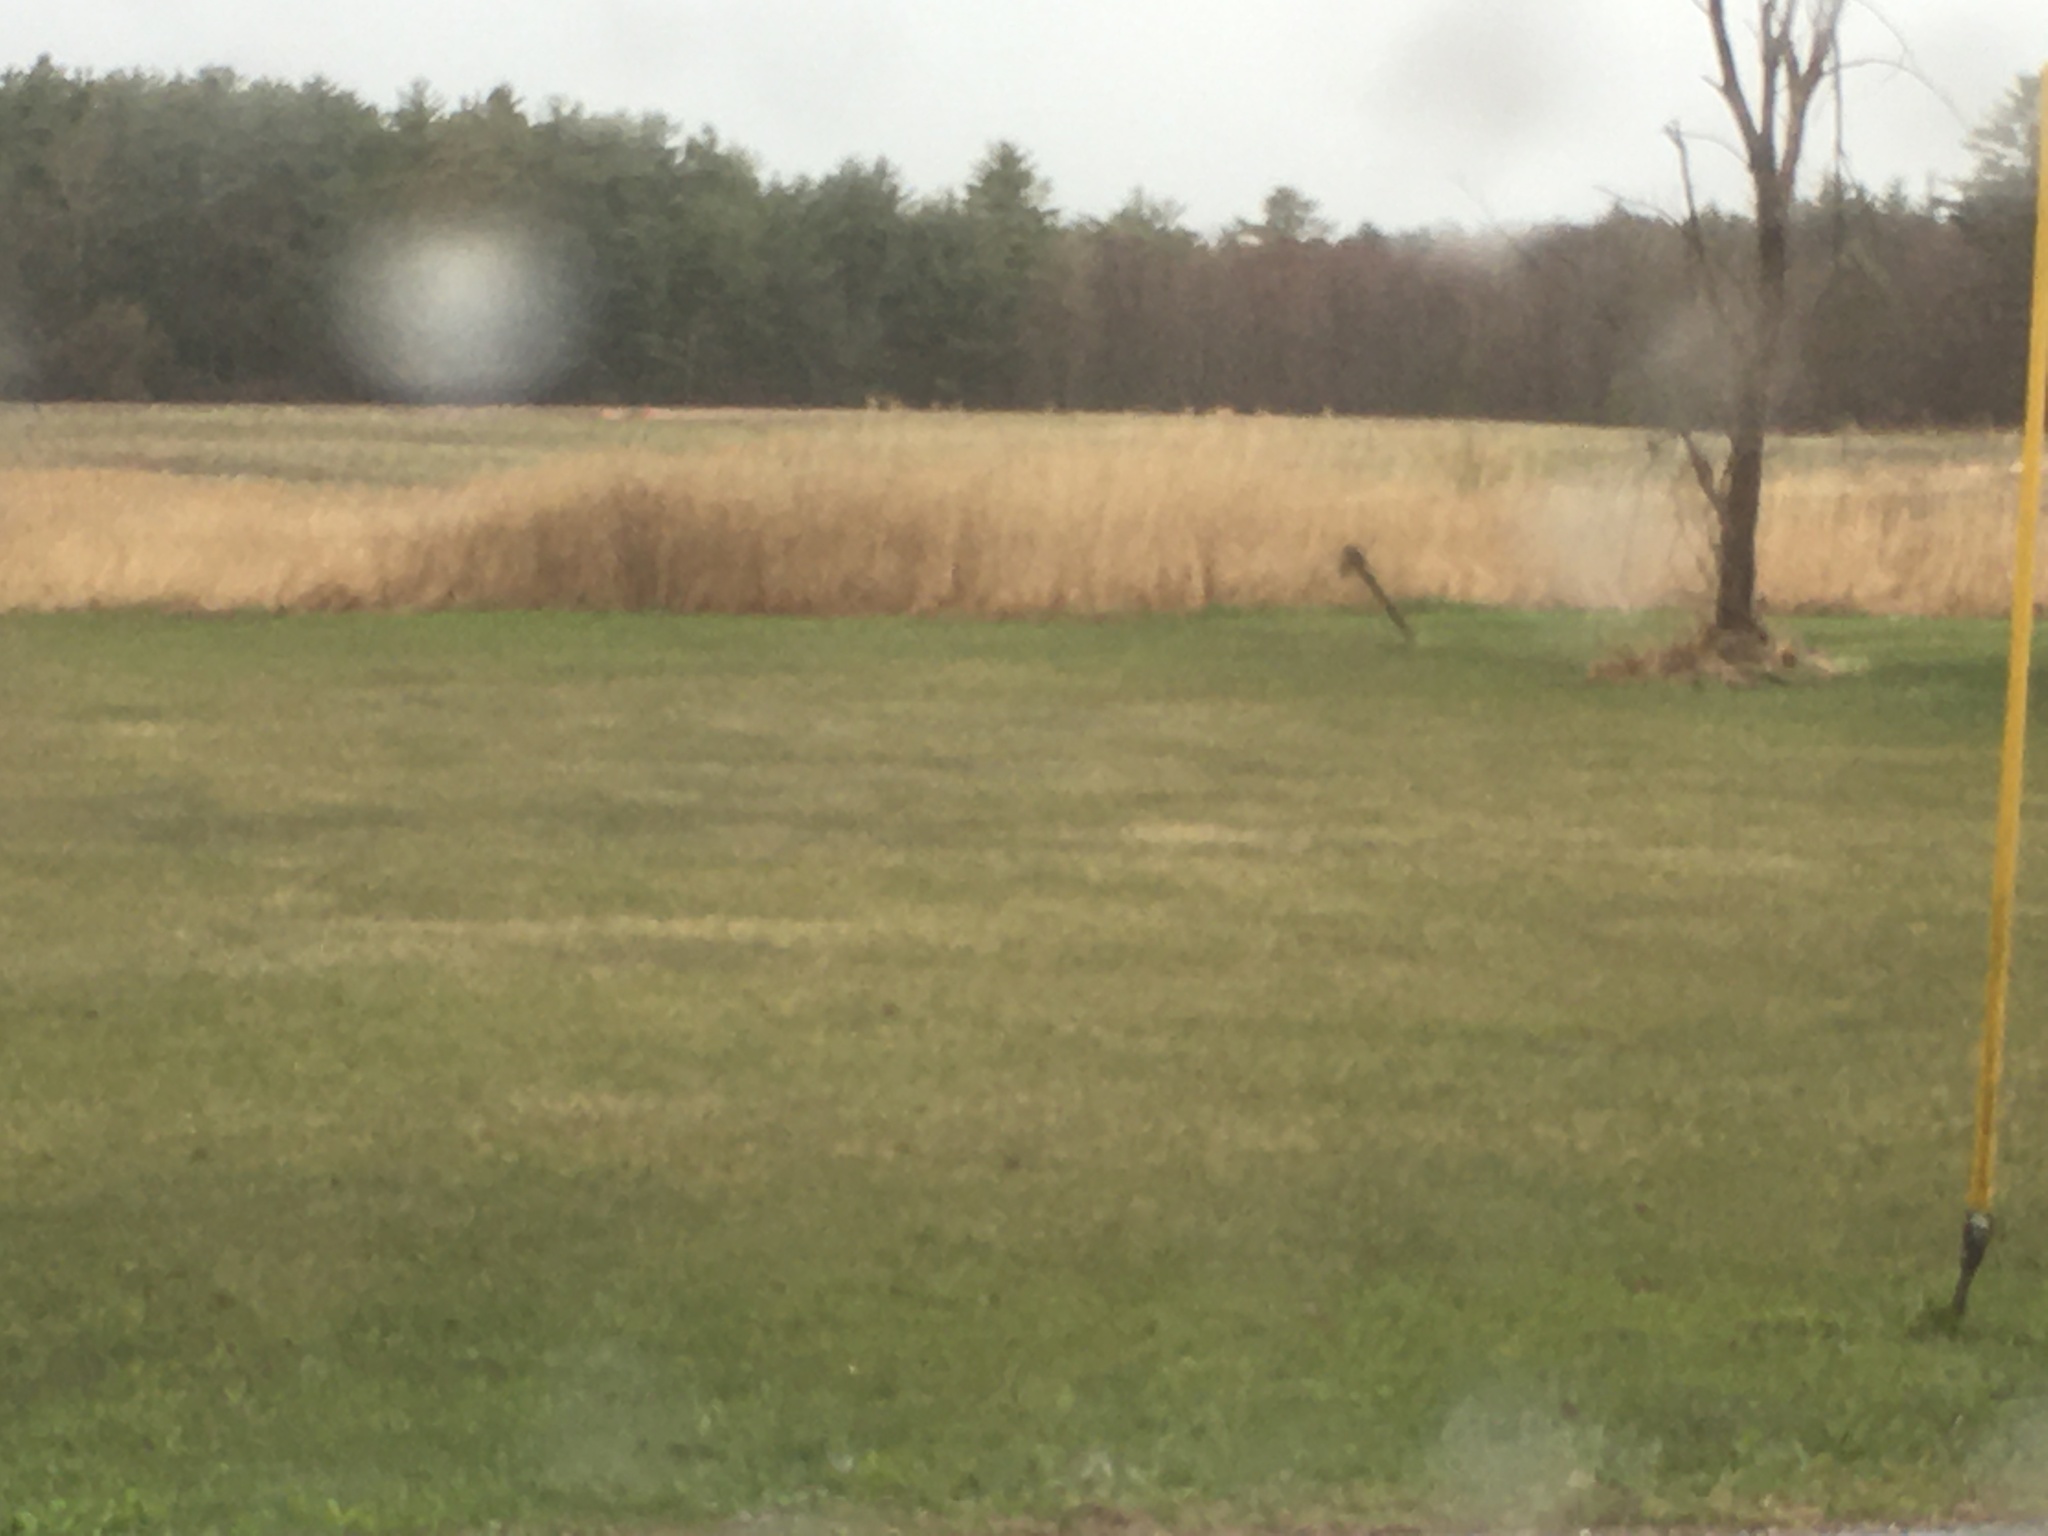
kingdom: Plantae
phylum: Tracheophyta
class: Liliopsida
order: Poales
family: Poaceae
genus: Phragmites
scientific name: Phragmites australis
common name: Common reed
